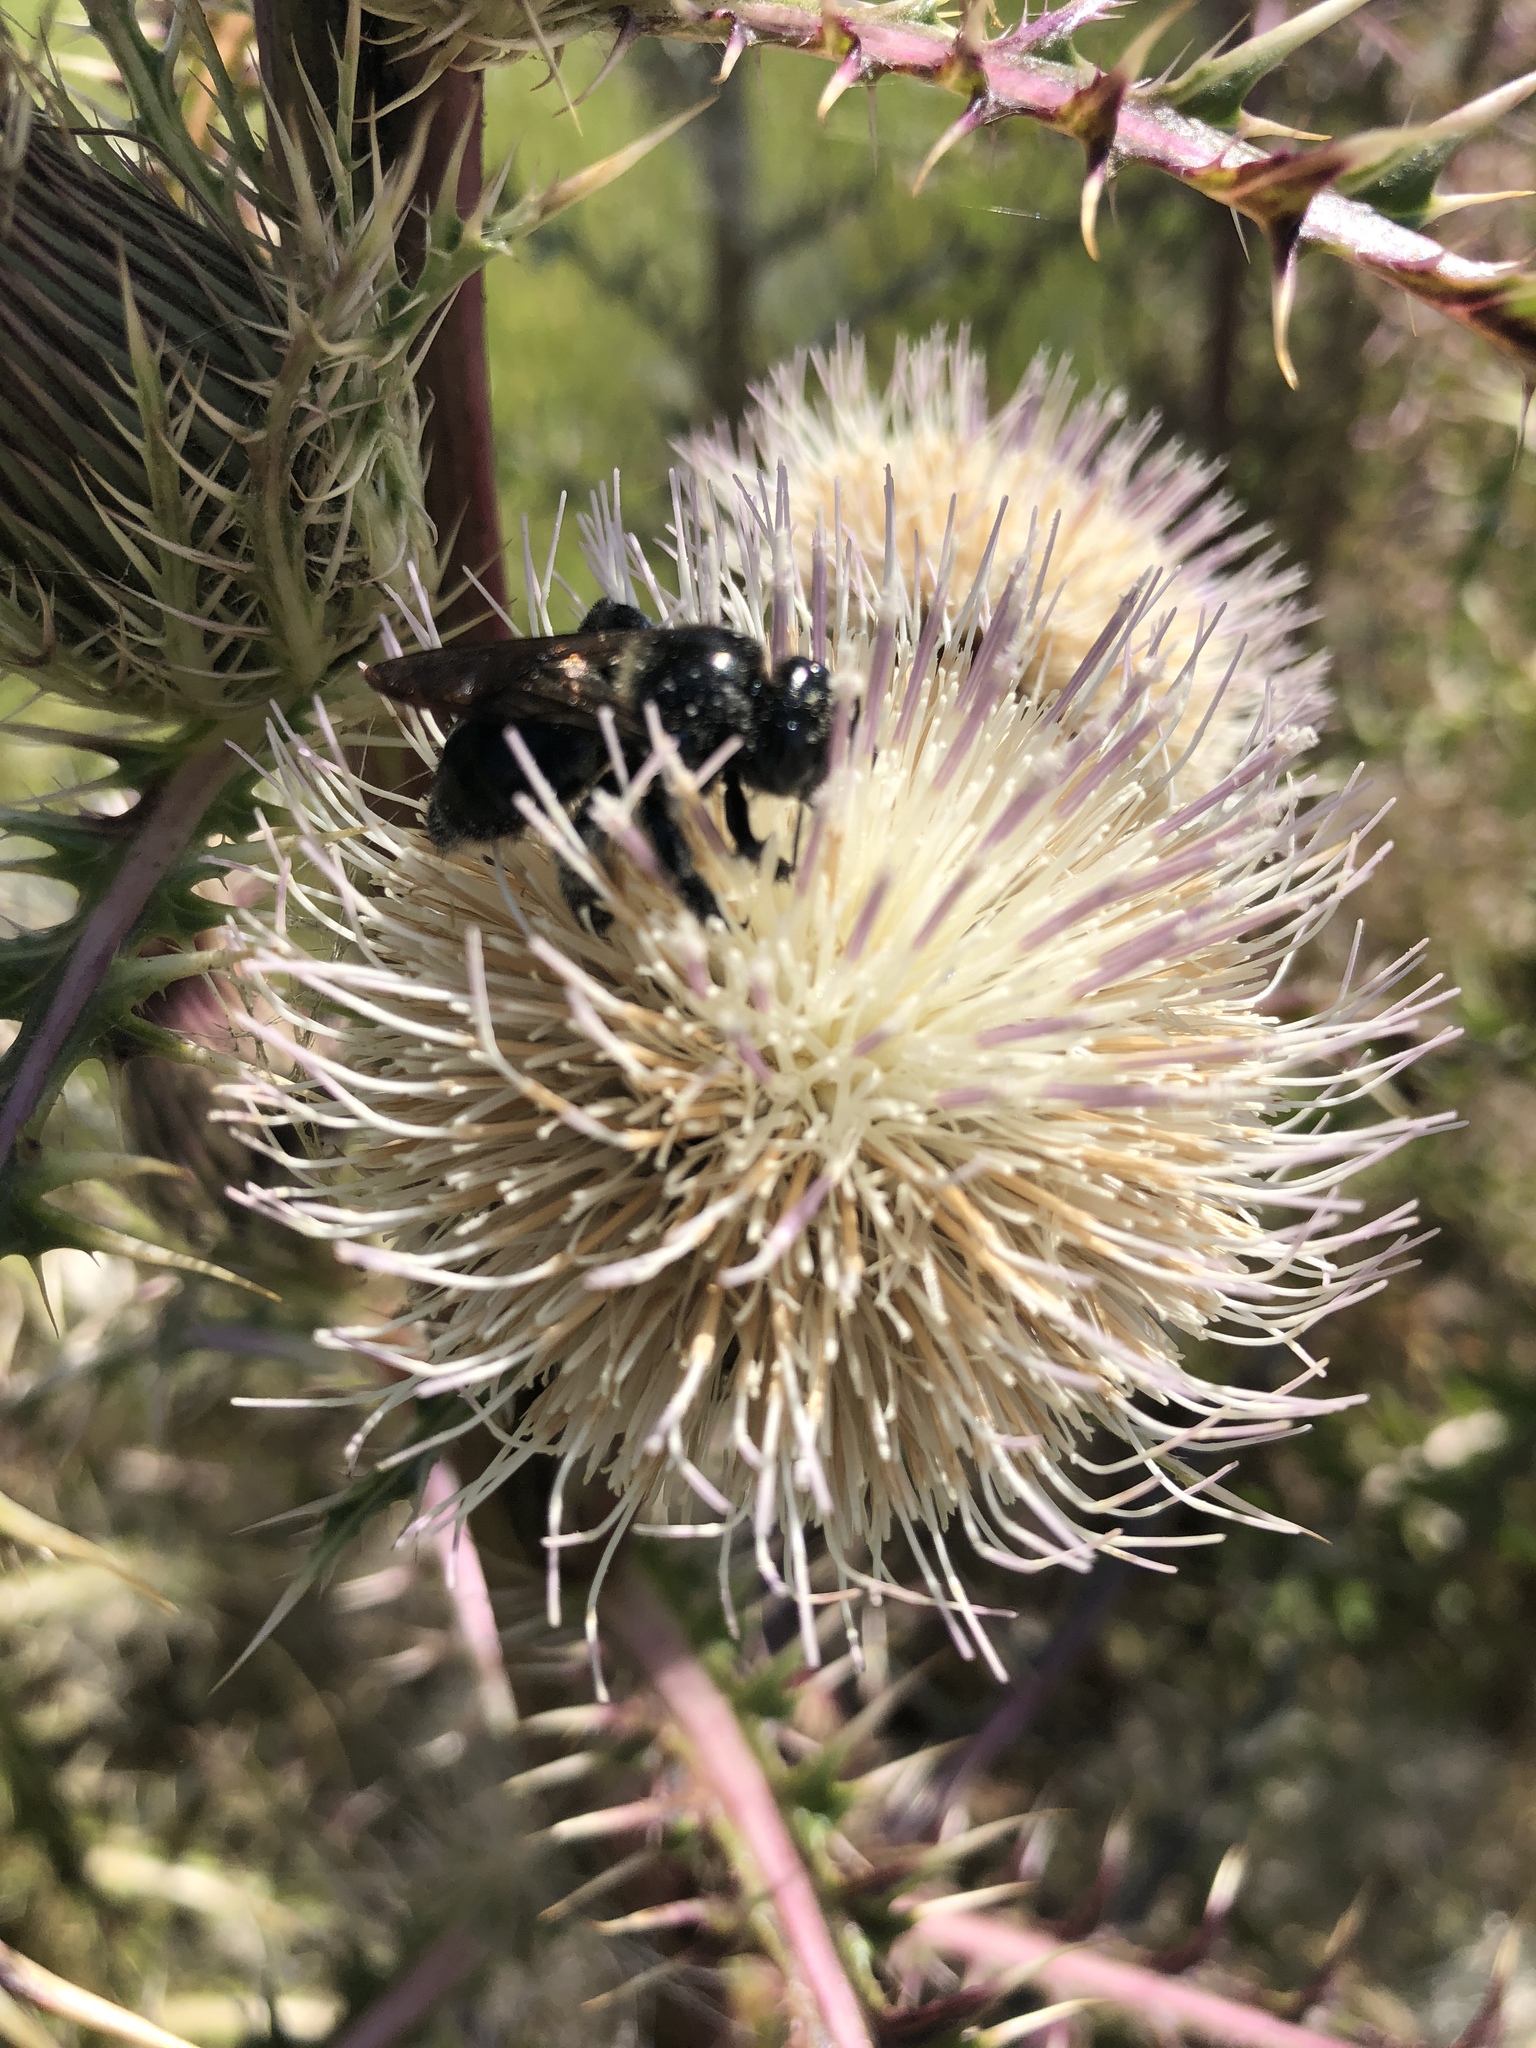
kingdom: Animalia
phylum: Arthropoda
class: Insecta
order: Hymenoptera
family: Apidae
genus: Xylocopa
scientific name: Xylocopa micans
